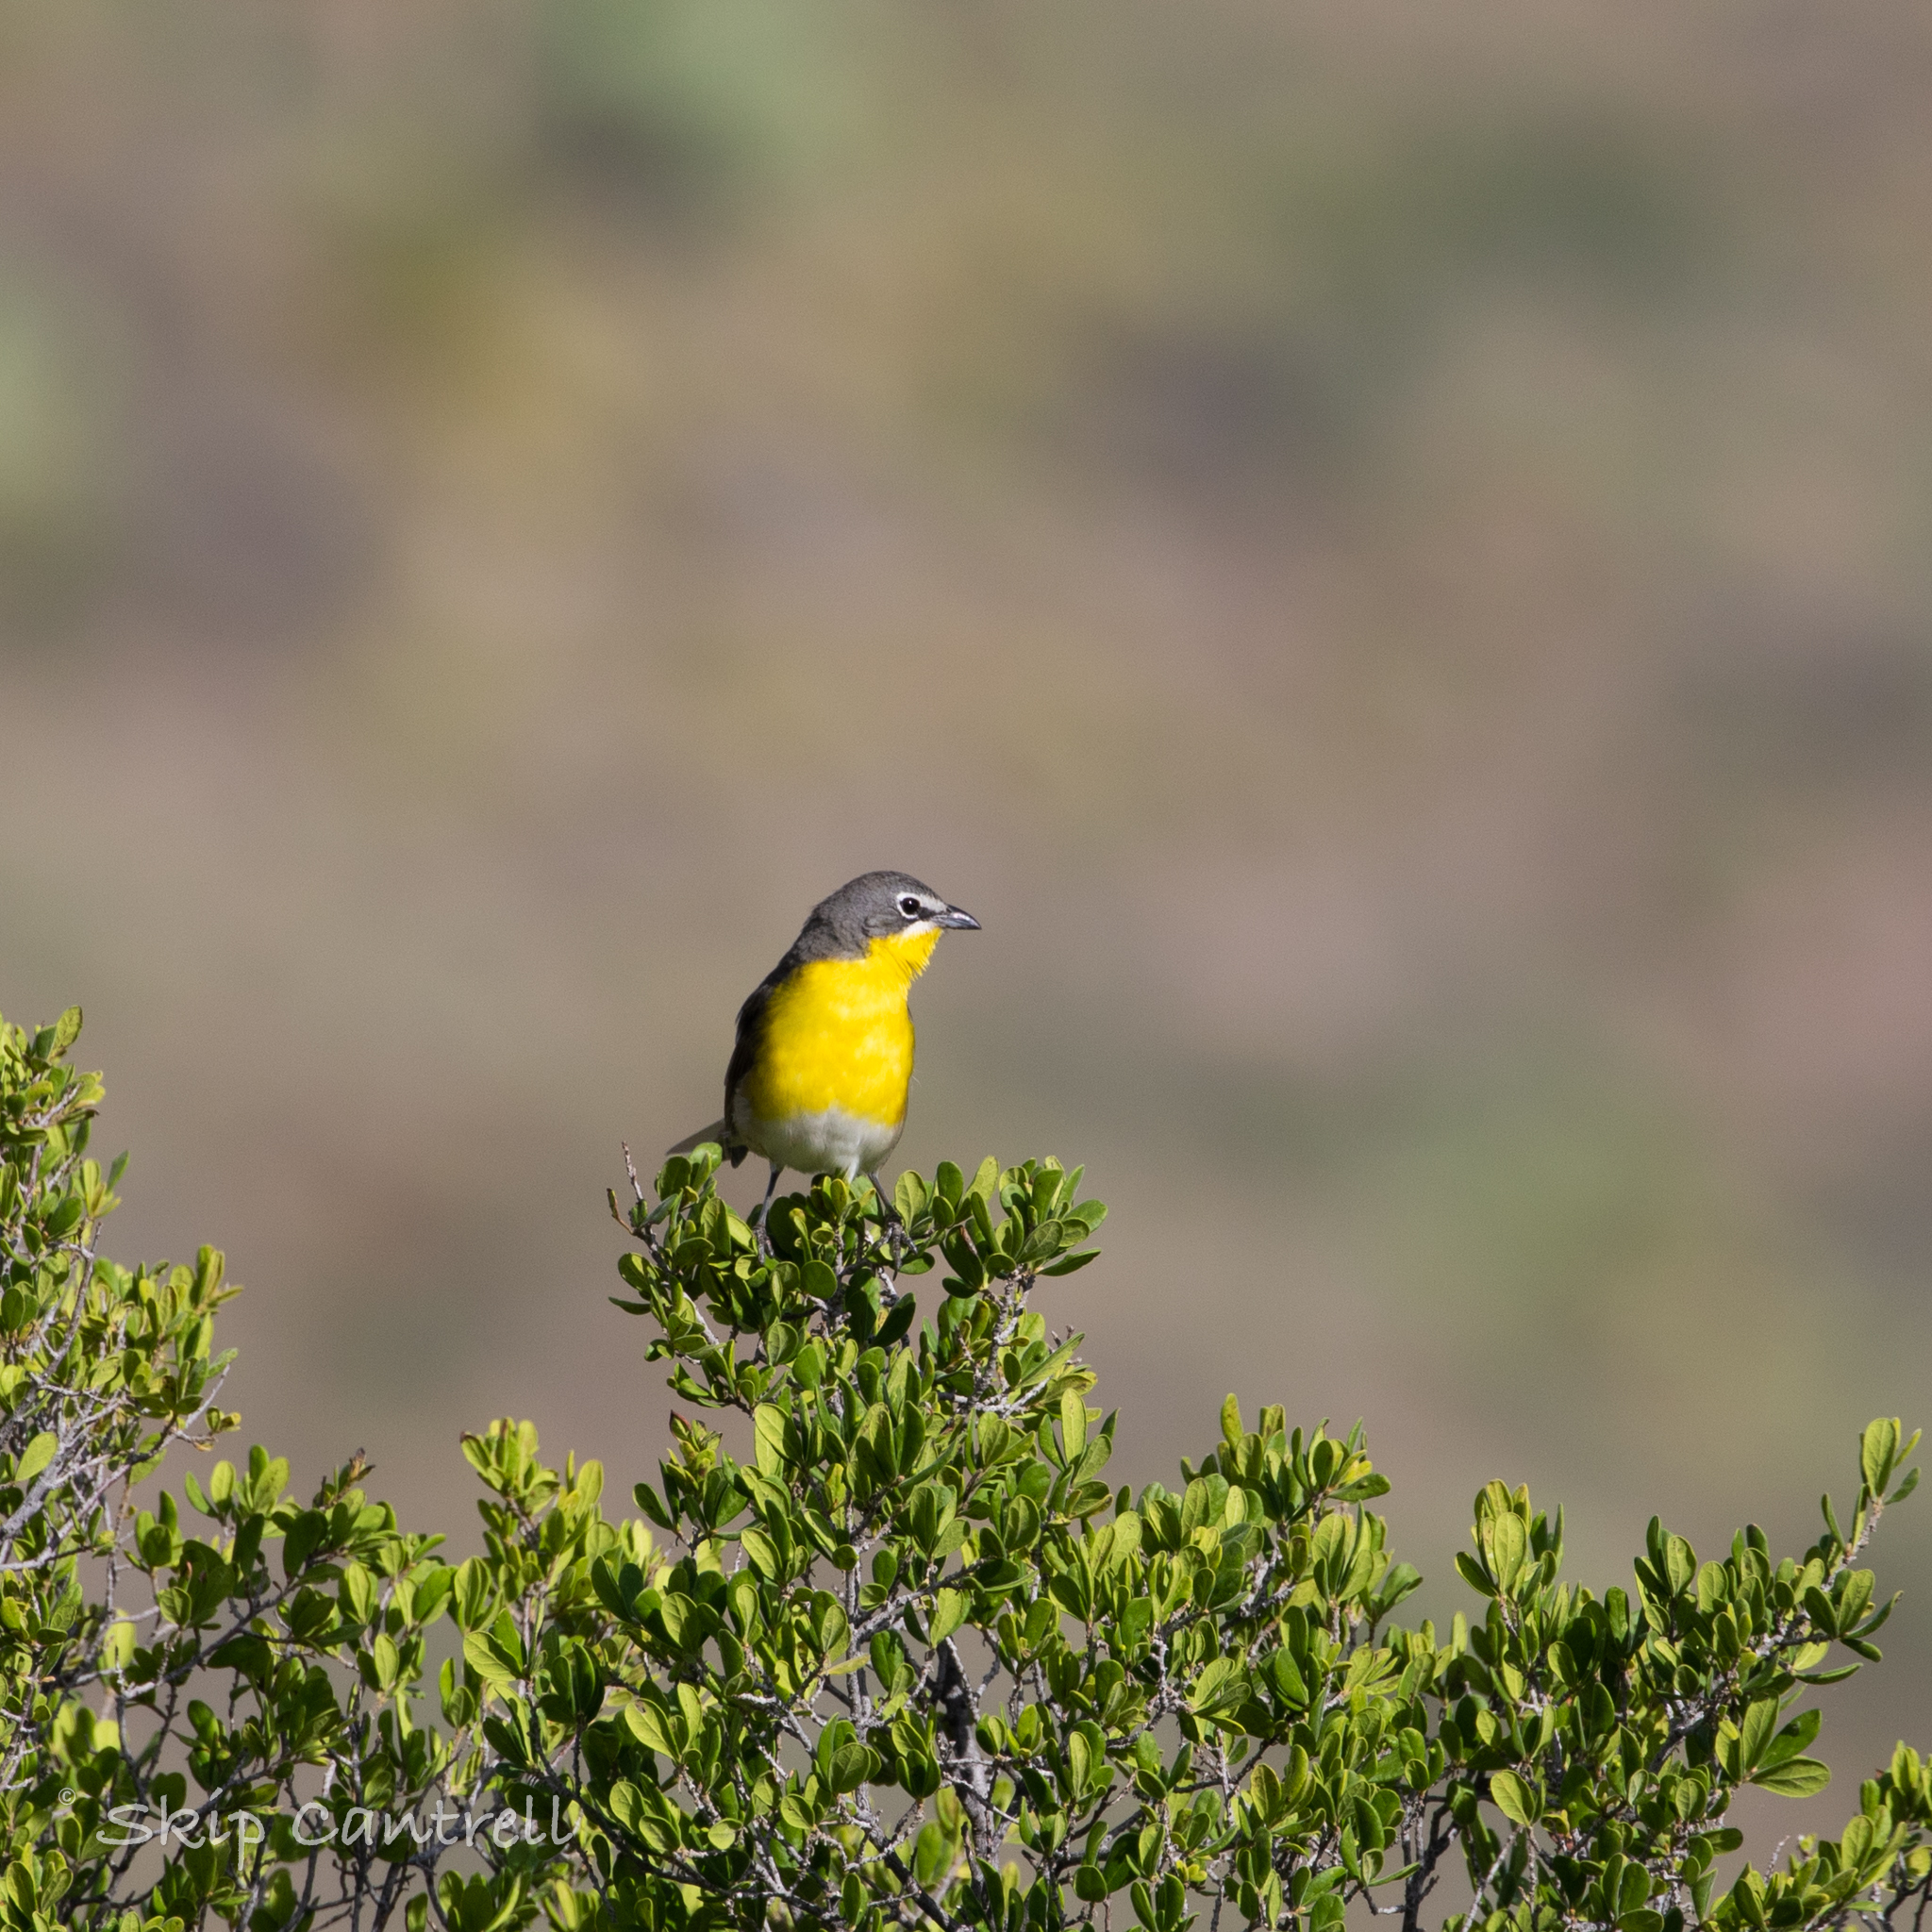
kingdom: Animalia
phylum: Chordata
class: Aves
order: Passeriformes
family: Parulidae
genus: Icteria
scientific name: Icteria virens
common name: Yellow-breasted chat
